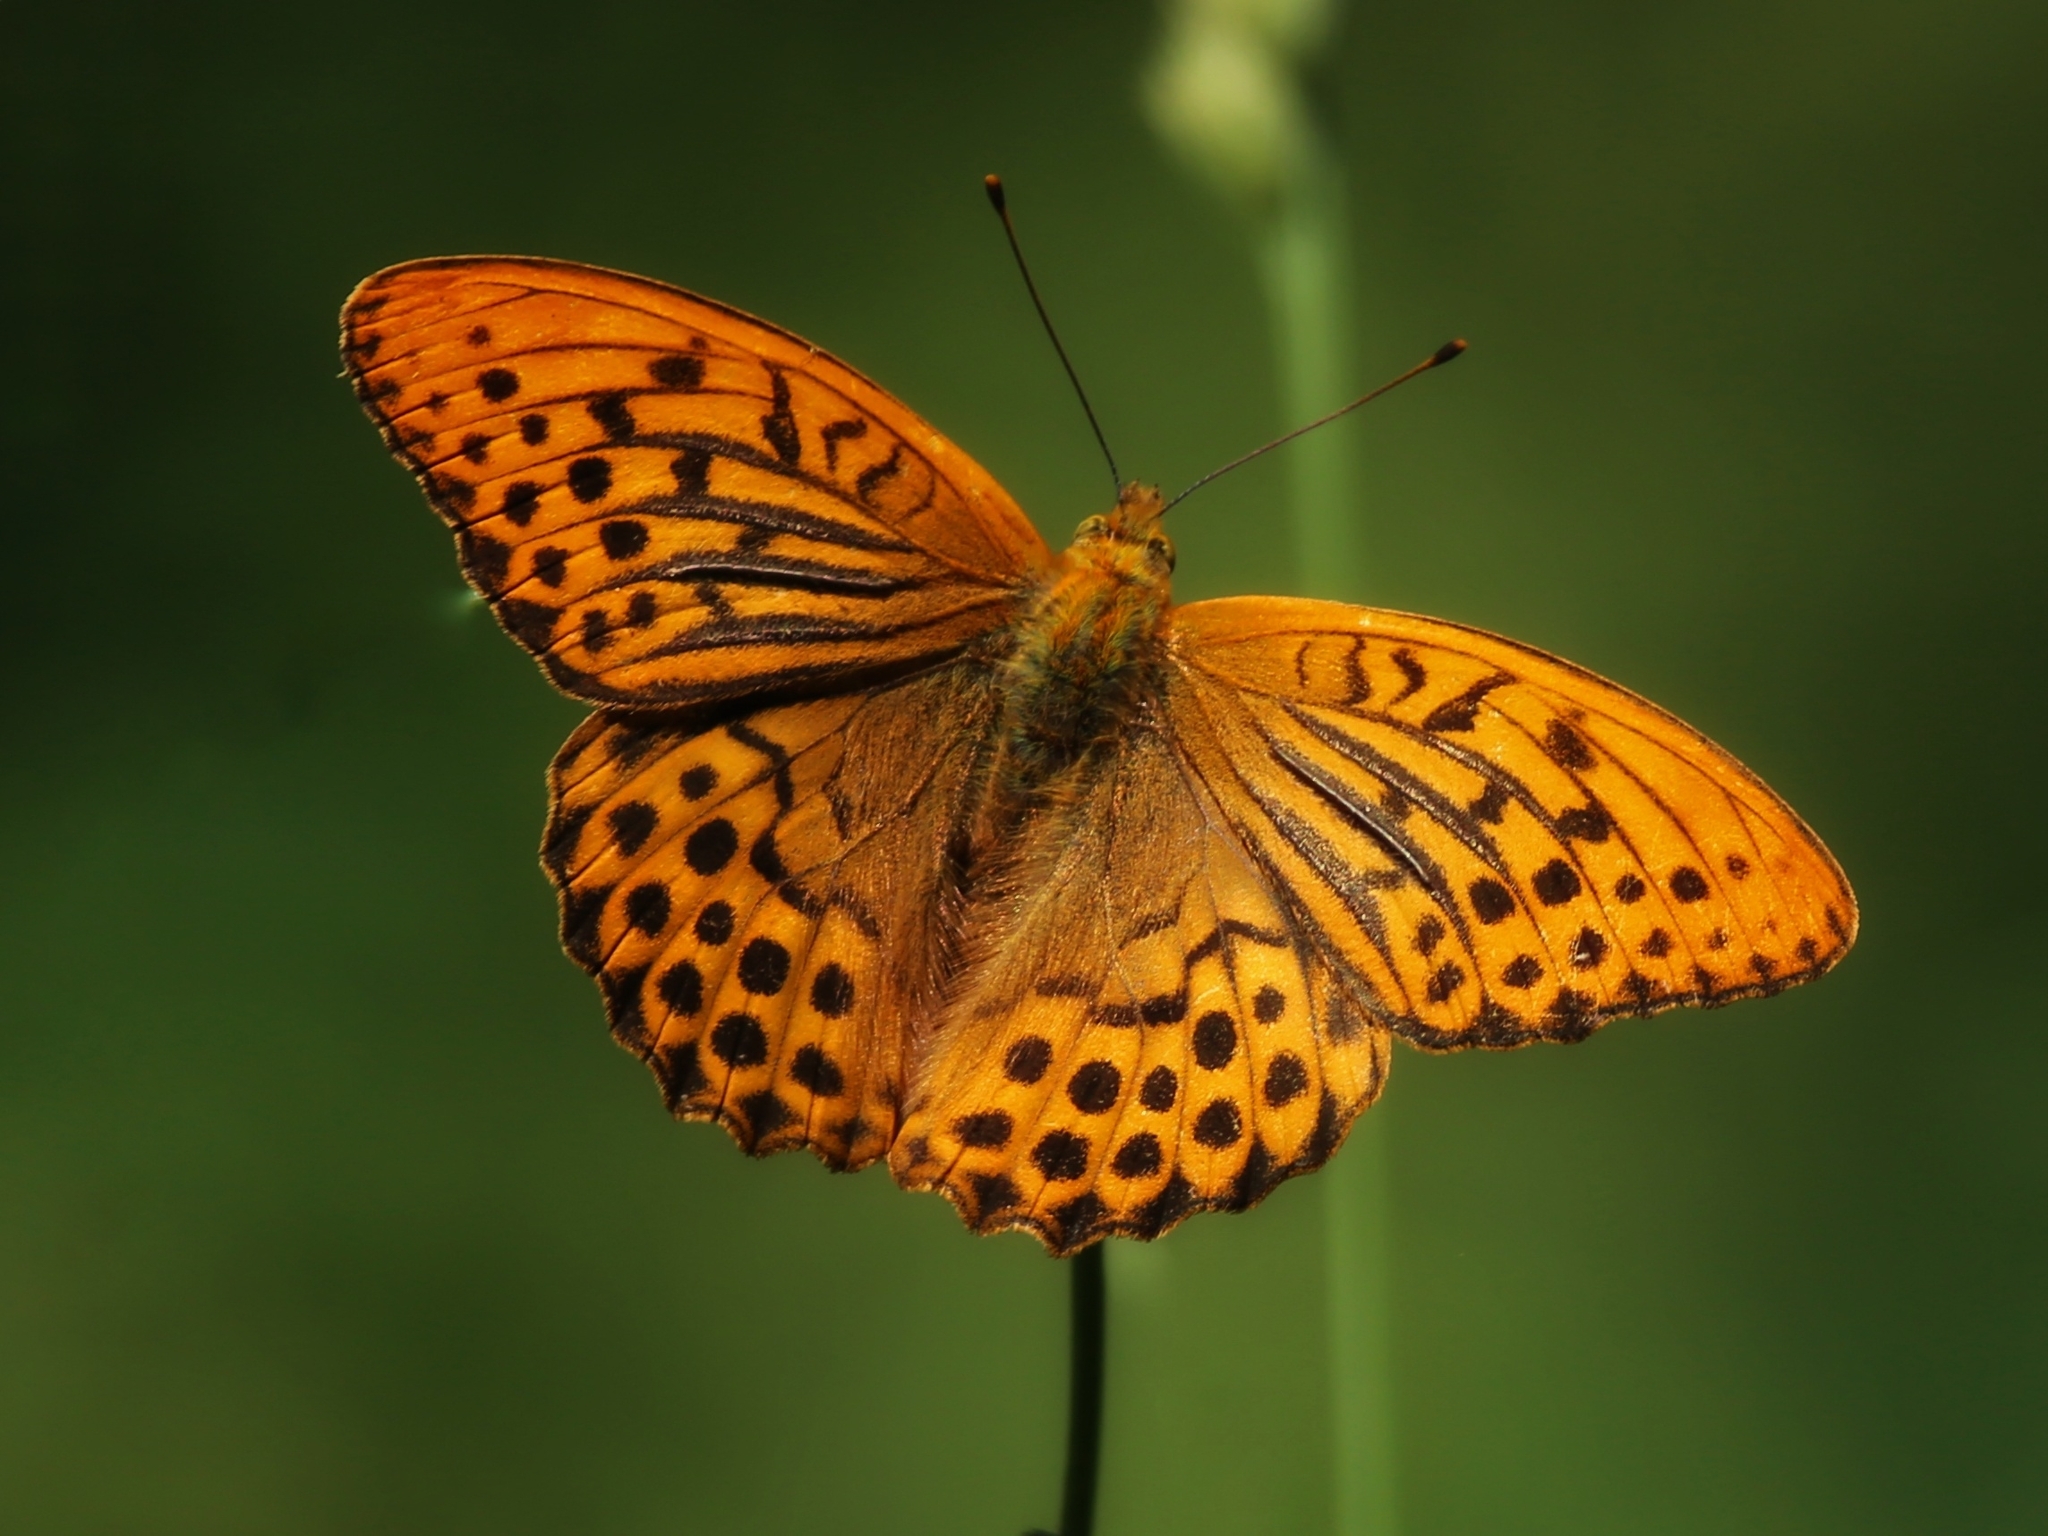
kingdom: Animalia
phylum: Arthropoda
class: Insecta
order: Lepidoptera
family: Nymphalidae
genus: Argynnis
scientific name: Argynnis paphia
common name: Silver-washed fritillary
